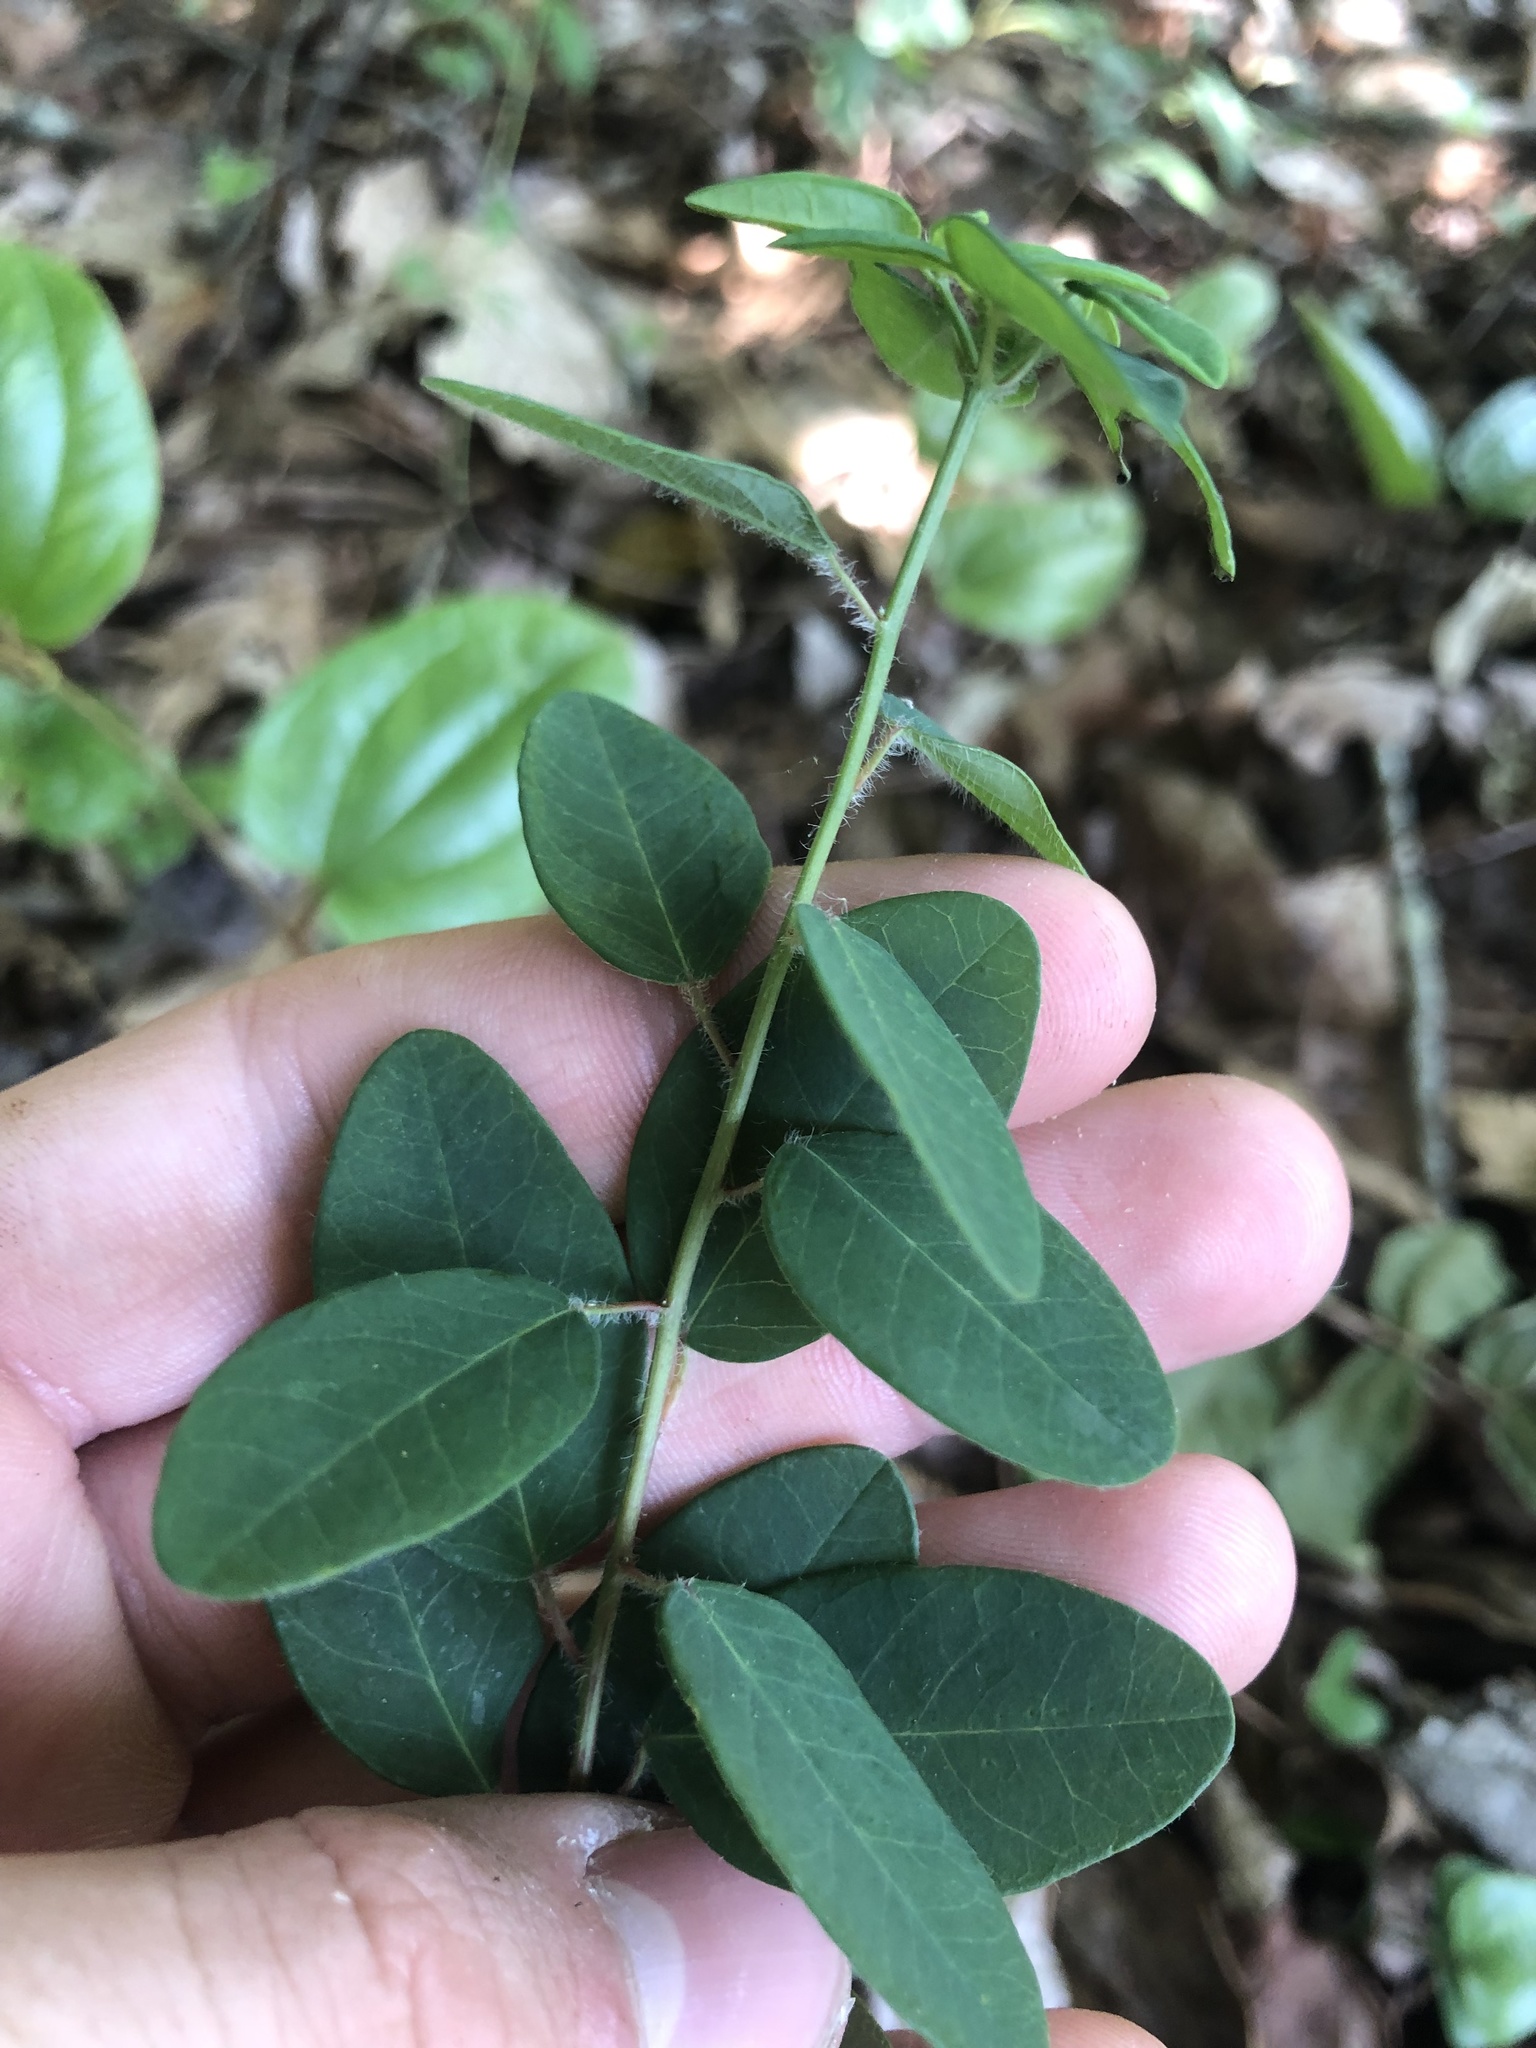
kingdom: Plantae
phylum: Tracheophyta
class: Magnoliopsida
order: Malpighiales
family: Euphorbiaceae
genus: Euphorbia
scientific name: Euphorbia pubentissima
